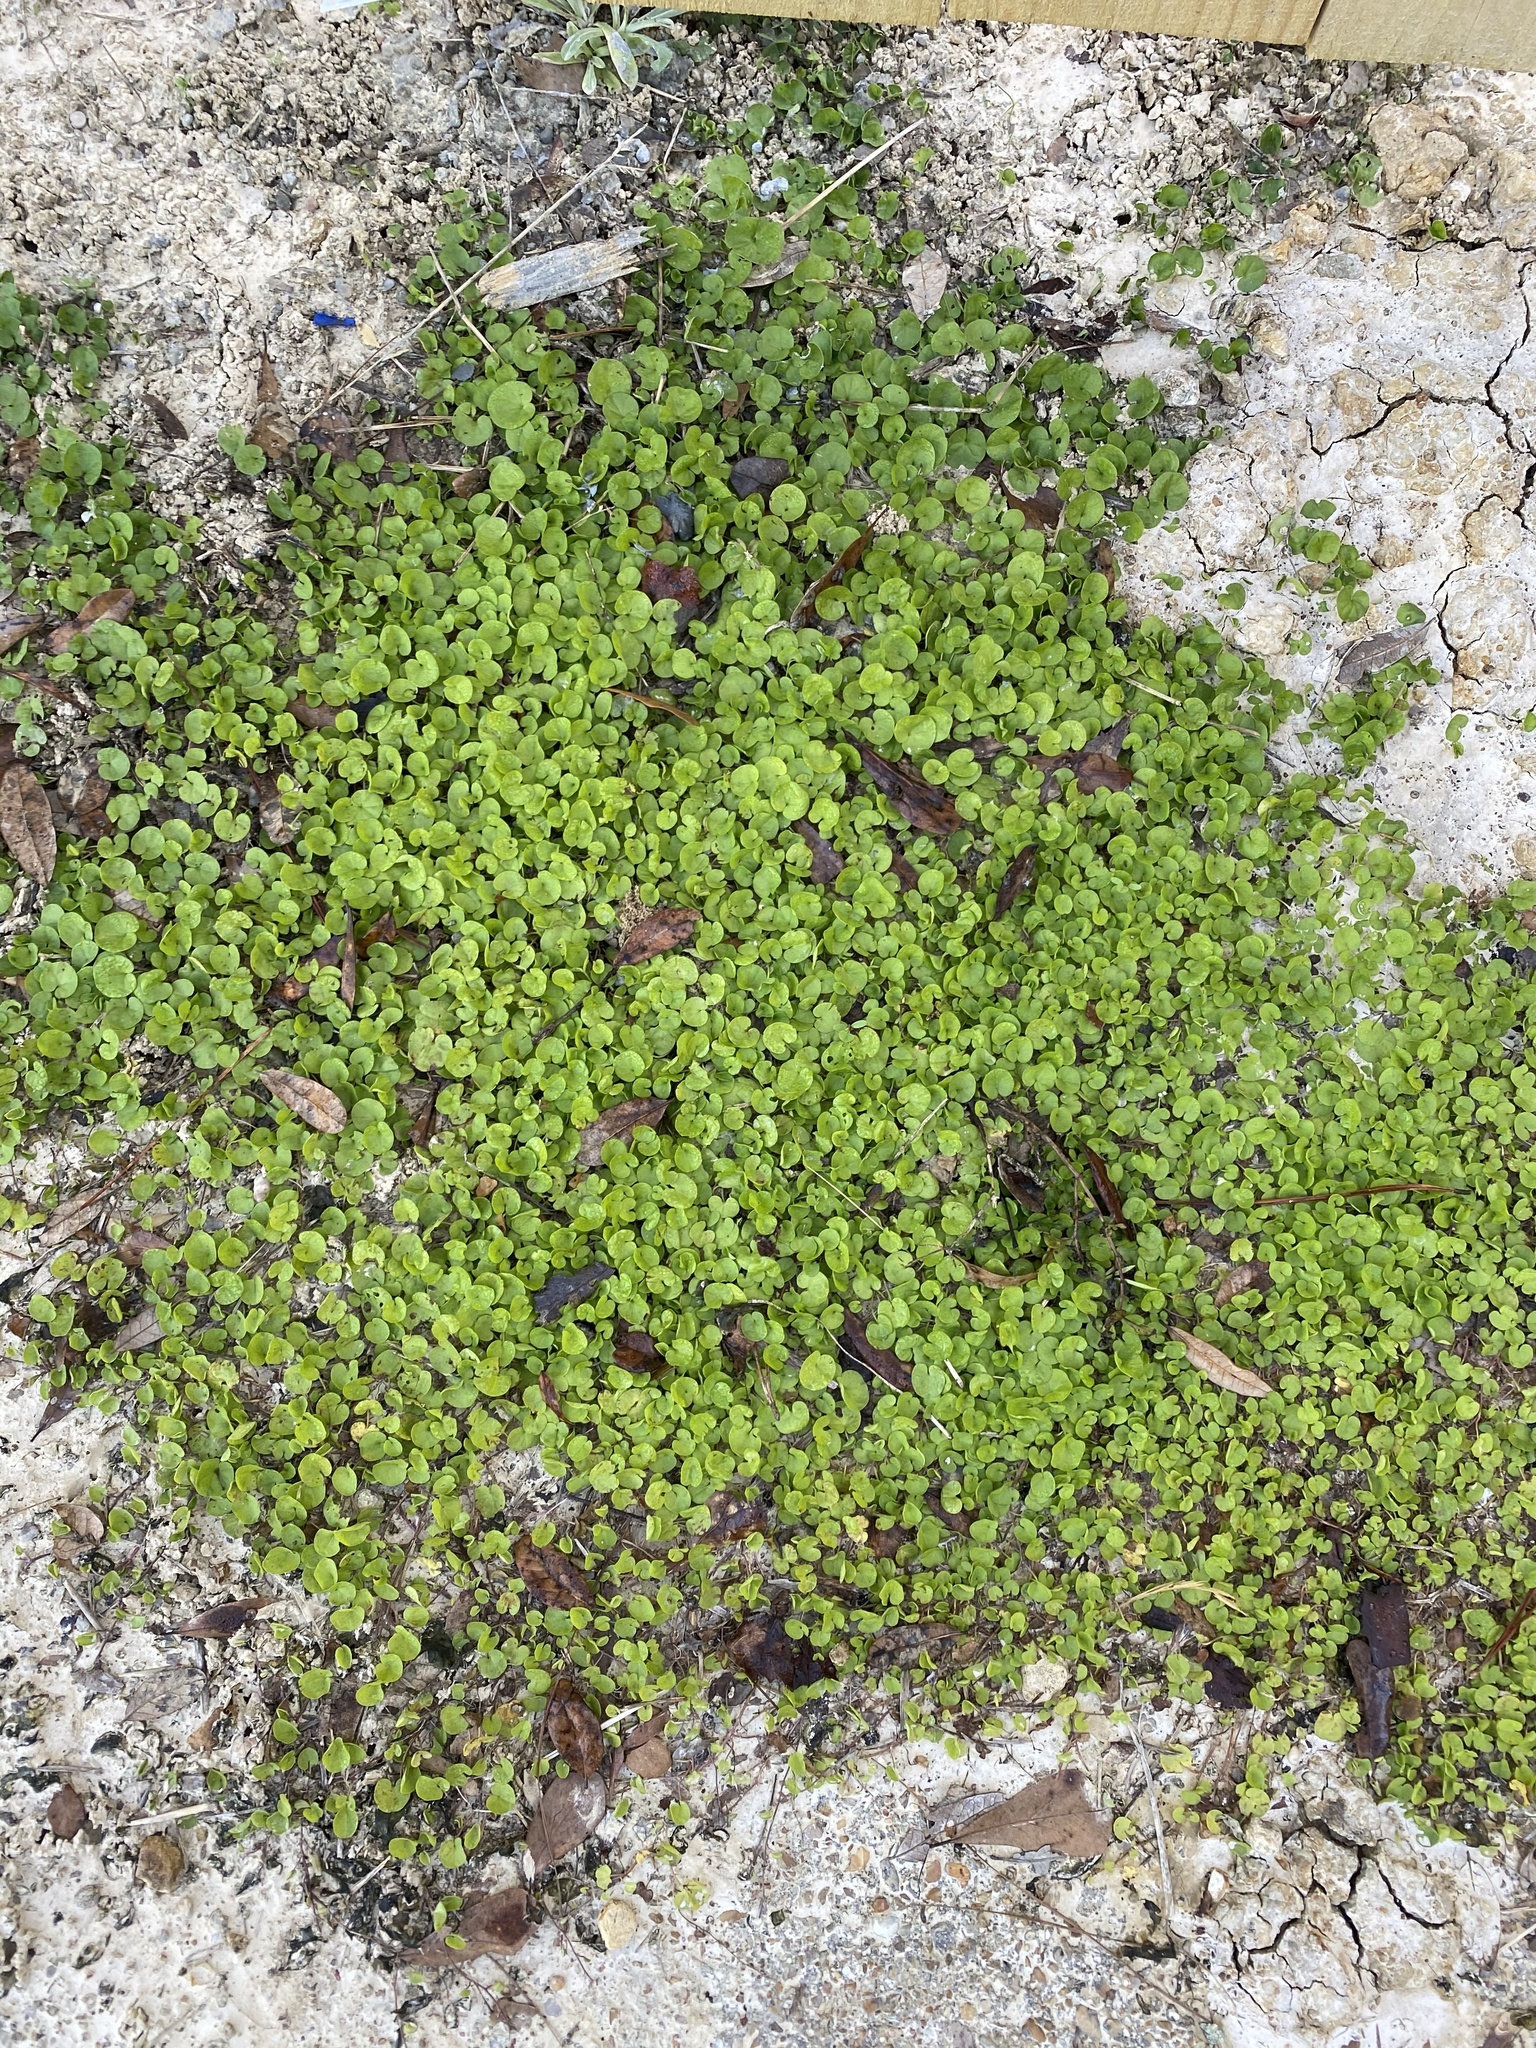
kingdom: Plantae
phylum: Tracheophyta
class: Magnoliopsida
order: Solanales
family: Convolvulaceae
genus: Dichondra
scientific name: Dichondra carolinensis
